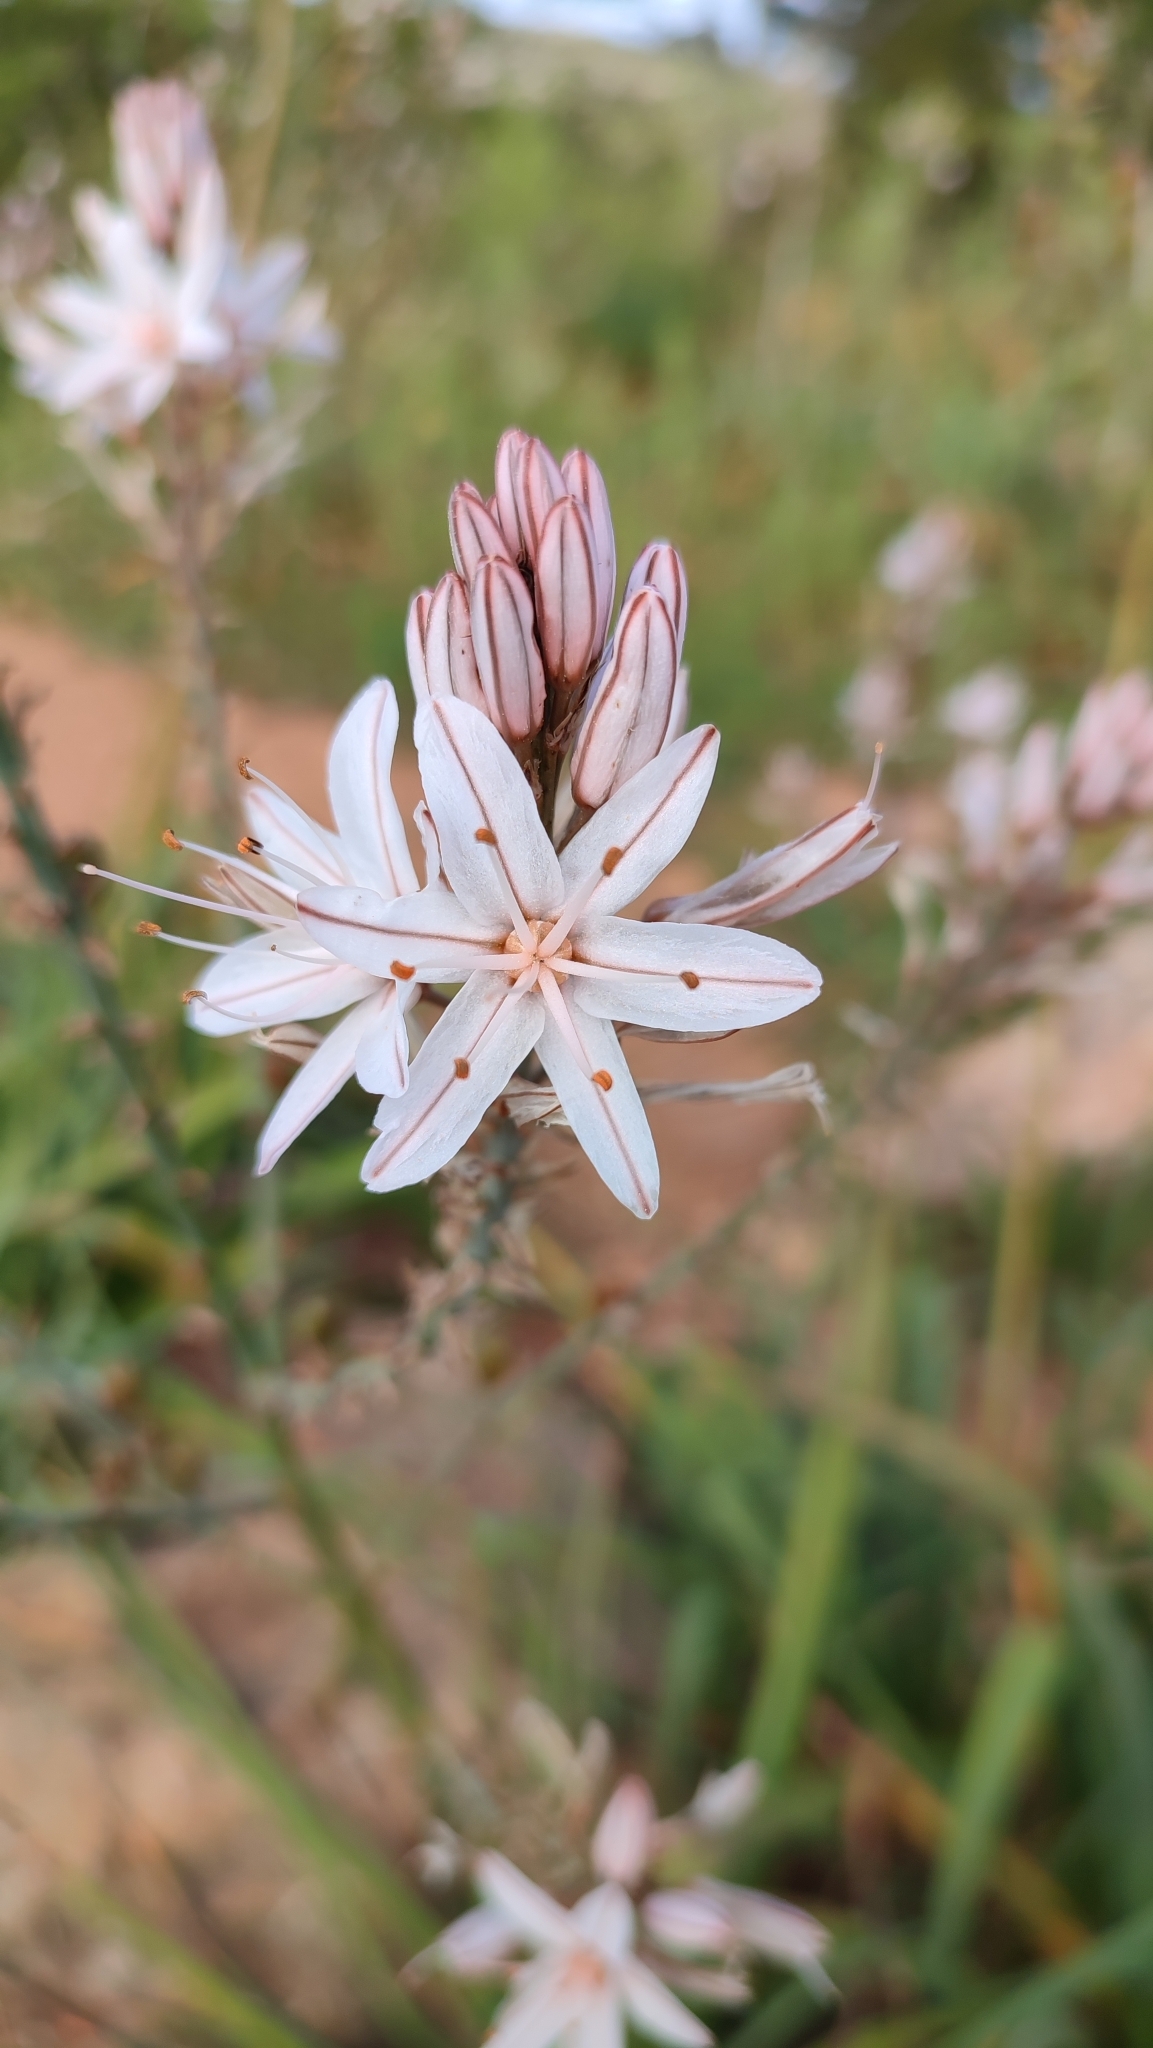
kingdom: Plantae
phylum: Tracheophyta
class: Liliopsida
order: Asparagales
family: Asphodelaceae
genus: Asphodelus
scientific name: Asphodelus ramosus
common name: Silverrod
